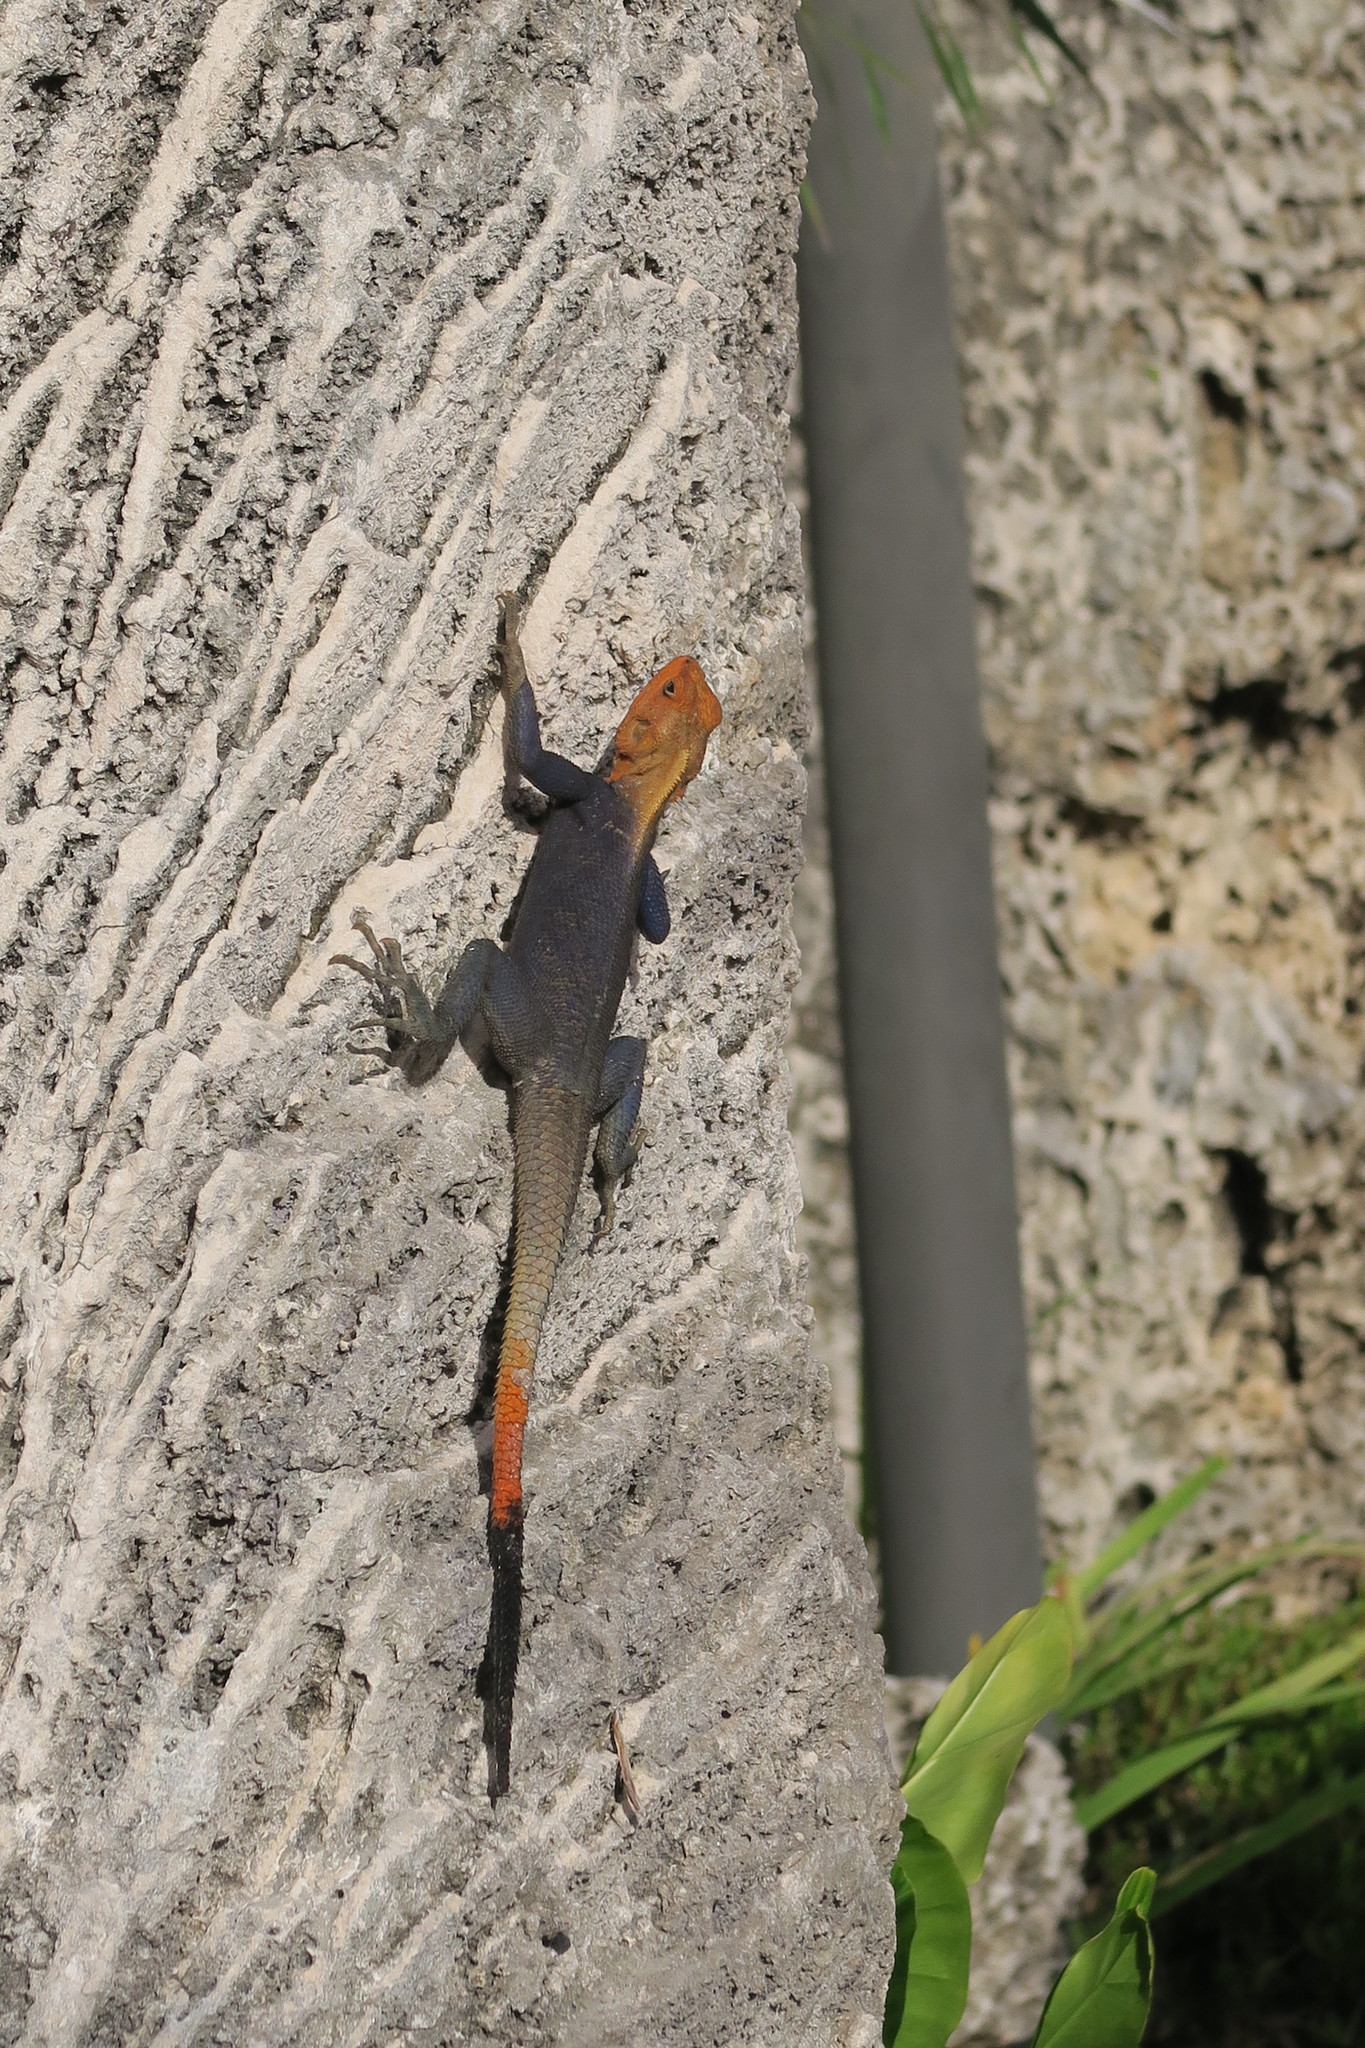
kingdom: Animalia
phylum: Chordata
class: Squamata
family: Agamidae
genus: Agama
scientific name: Agama picticauda
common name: Red-headed agama
